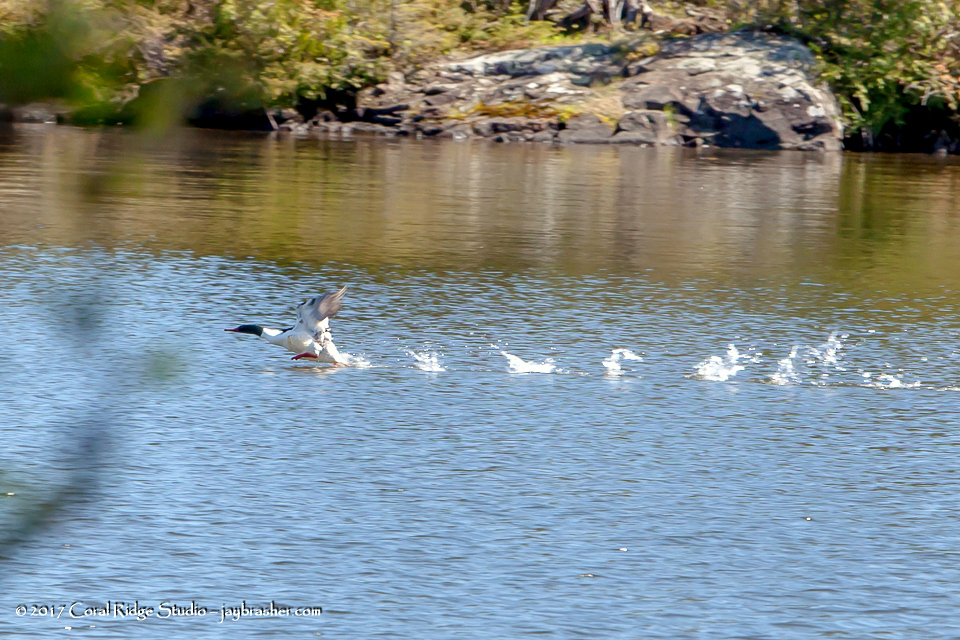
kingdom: Animalia
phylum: Chordata
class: Aves
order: Anseriformes
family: Anatidae
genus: Mergus
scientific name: Mergus merganser
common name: Common merganser
